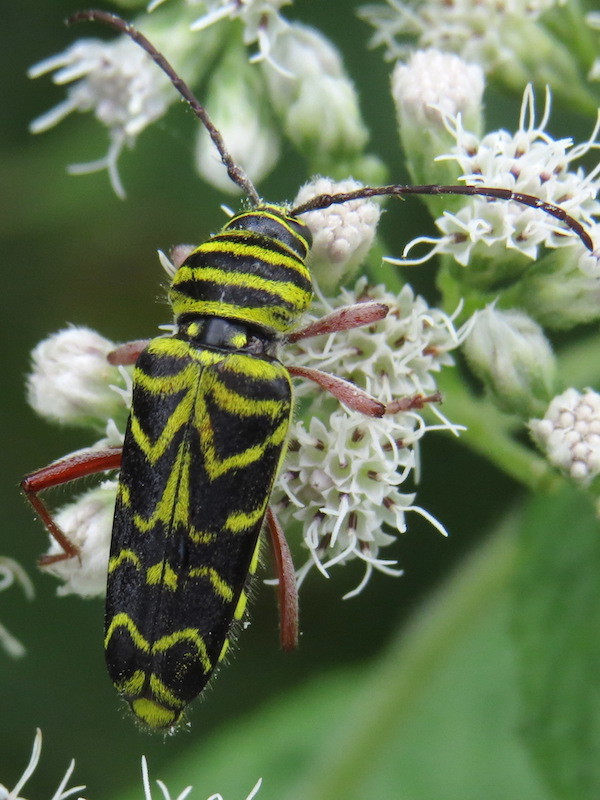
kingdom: Animalia
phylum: Arthropoda
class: Insecta
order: Coleoptera
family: Cerambycidae
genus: Megacyllene
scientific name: Megacyllene robiniae
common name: Locust borer
